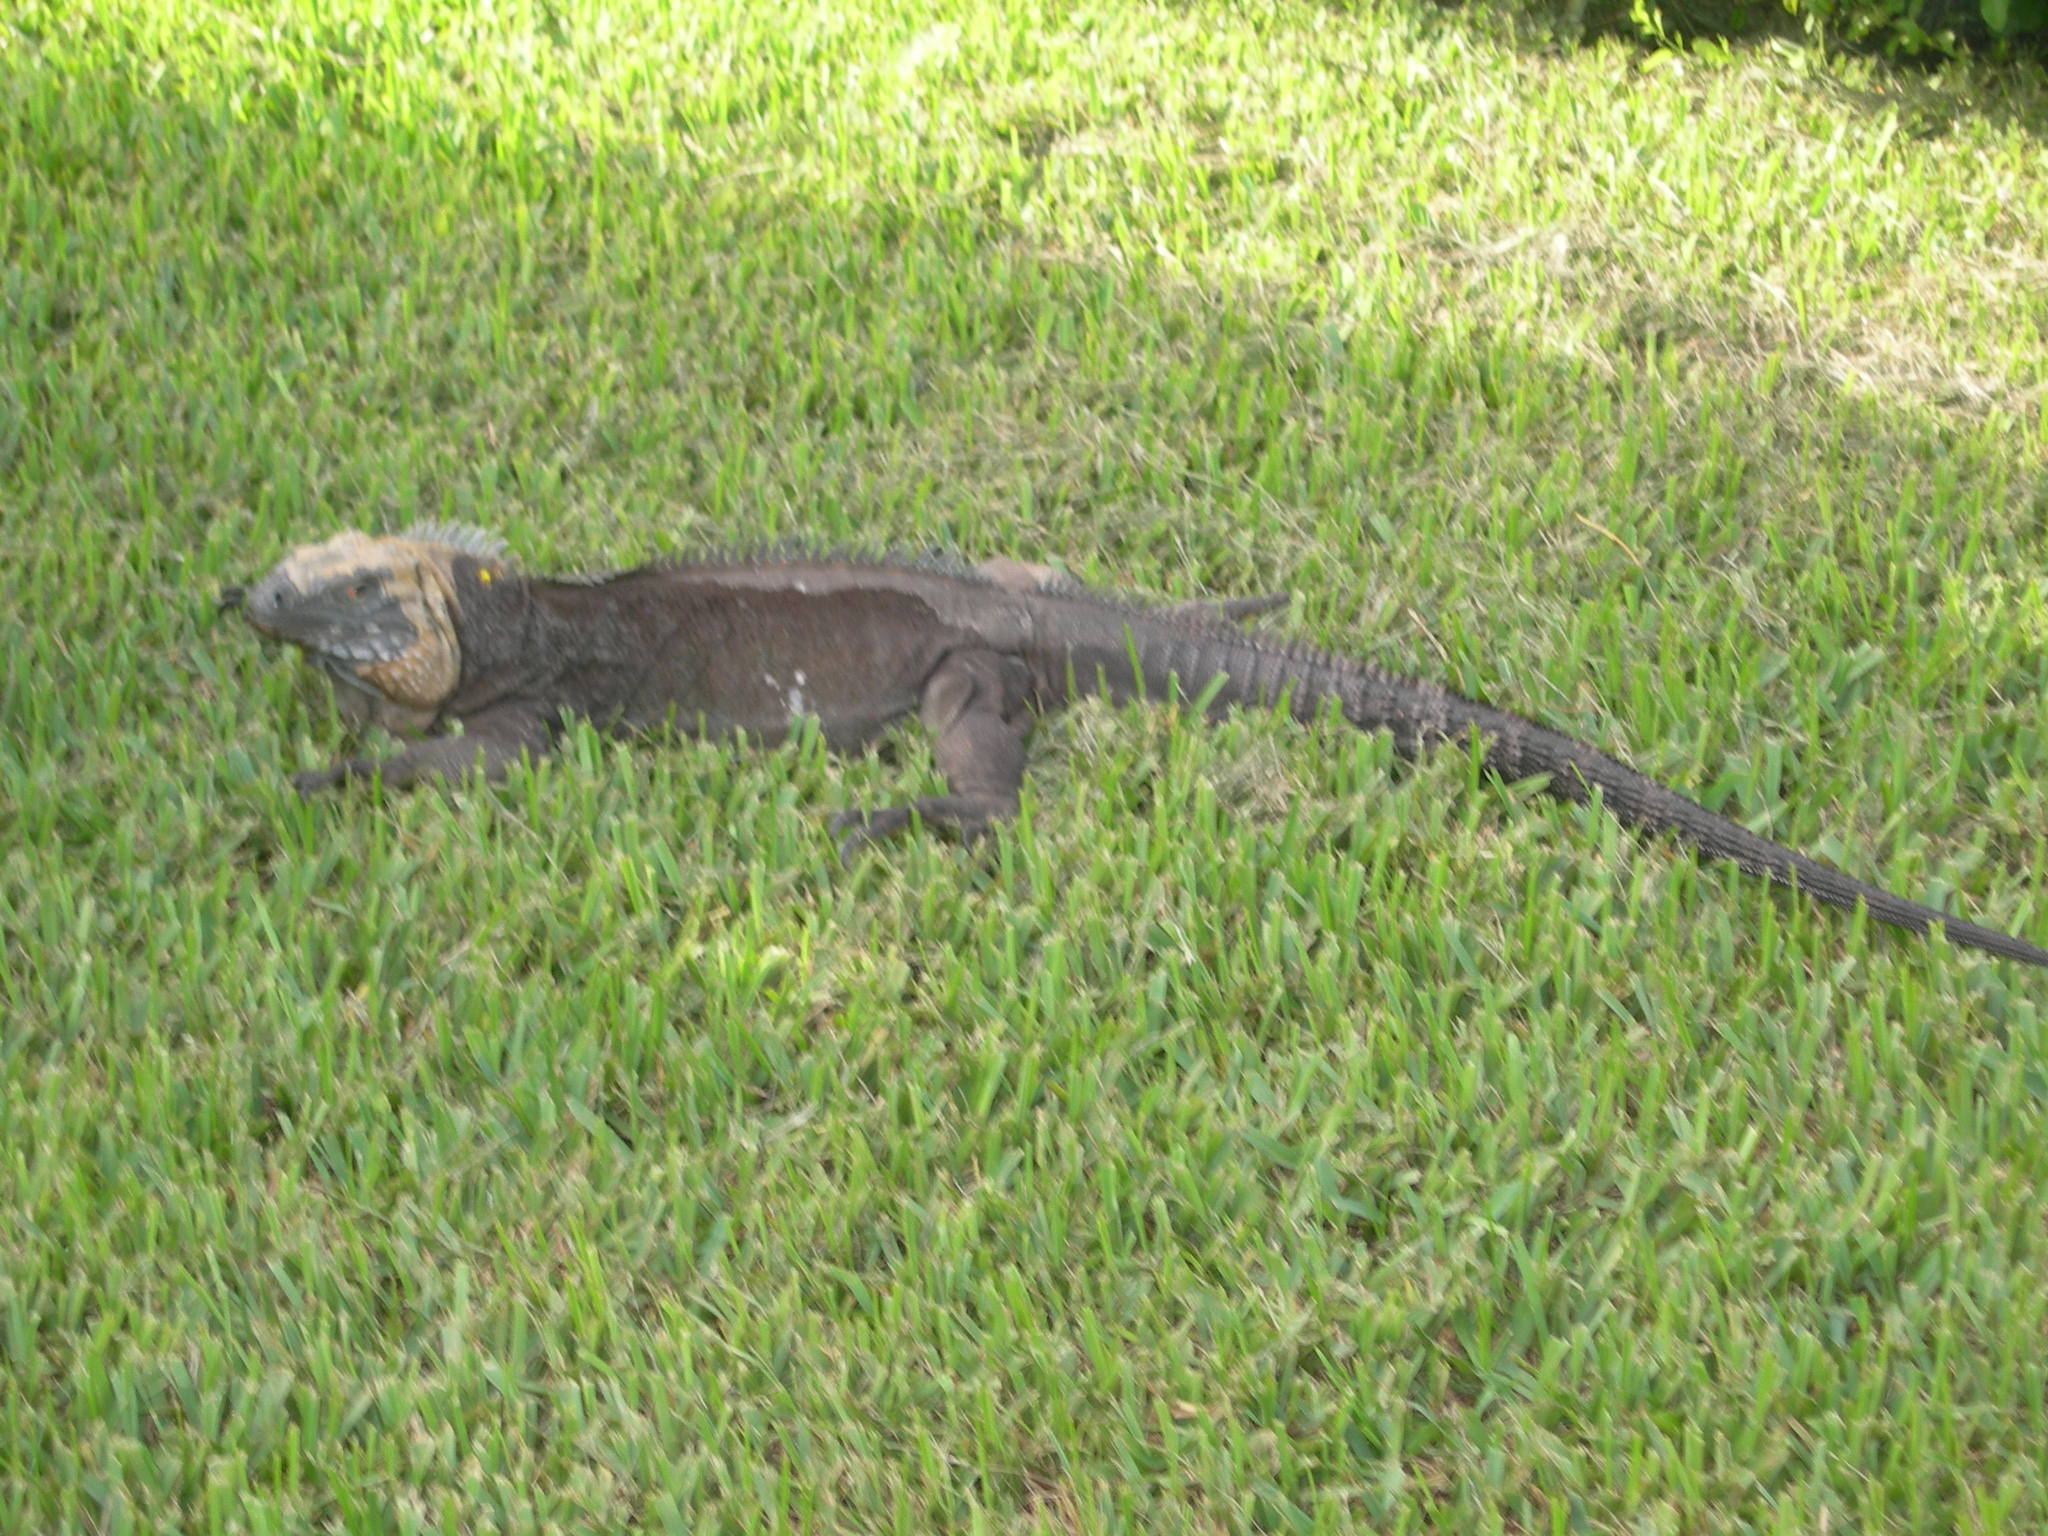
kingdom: Animalia
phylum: Chordata
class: Squamata
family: Iguanidae
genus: Cyclura
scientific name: Cyclura lewisi
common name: Grand cayman blue iguana
